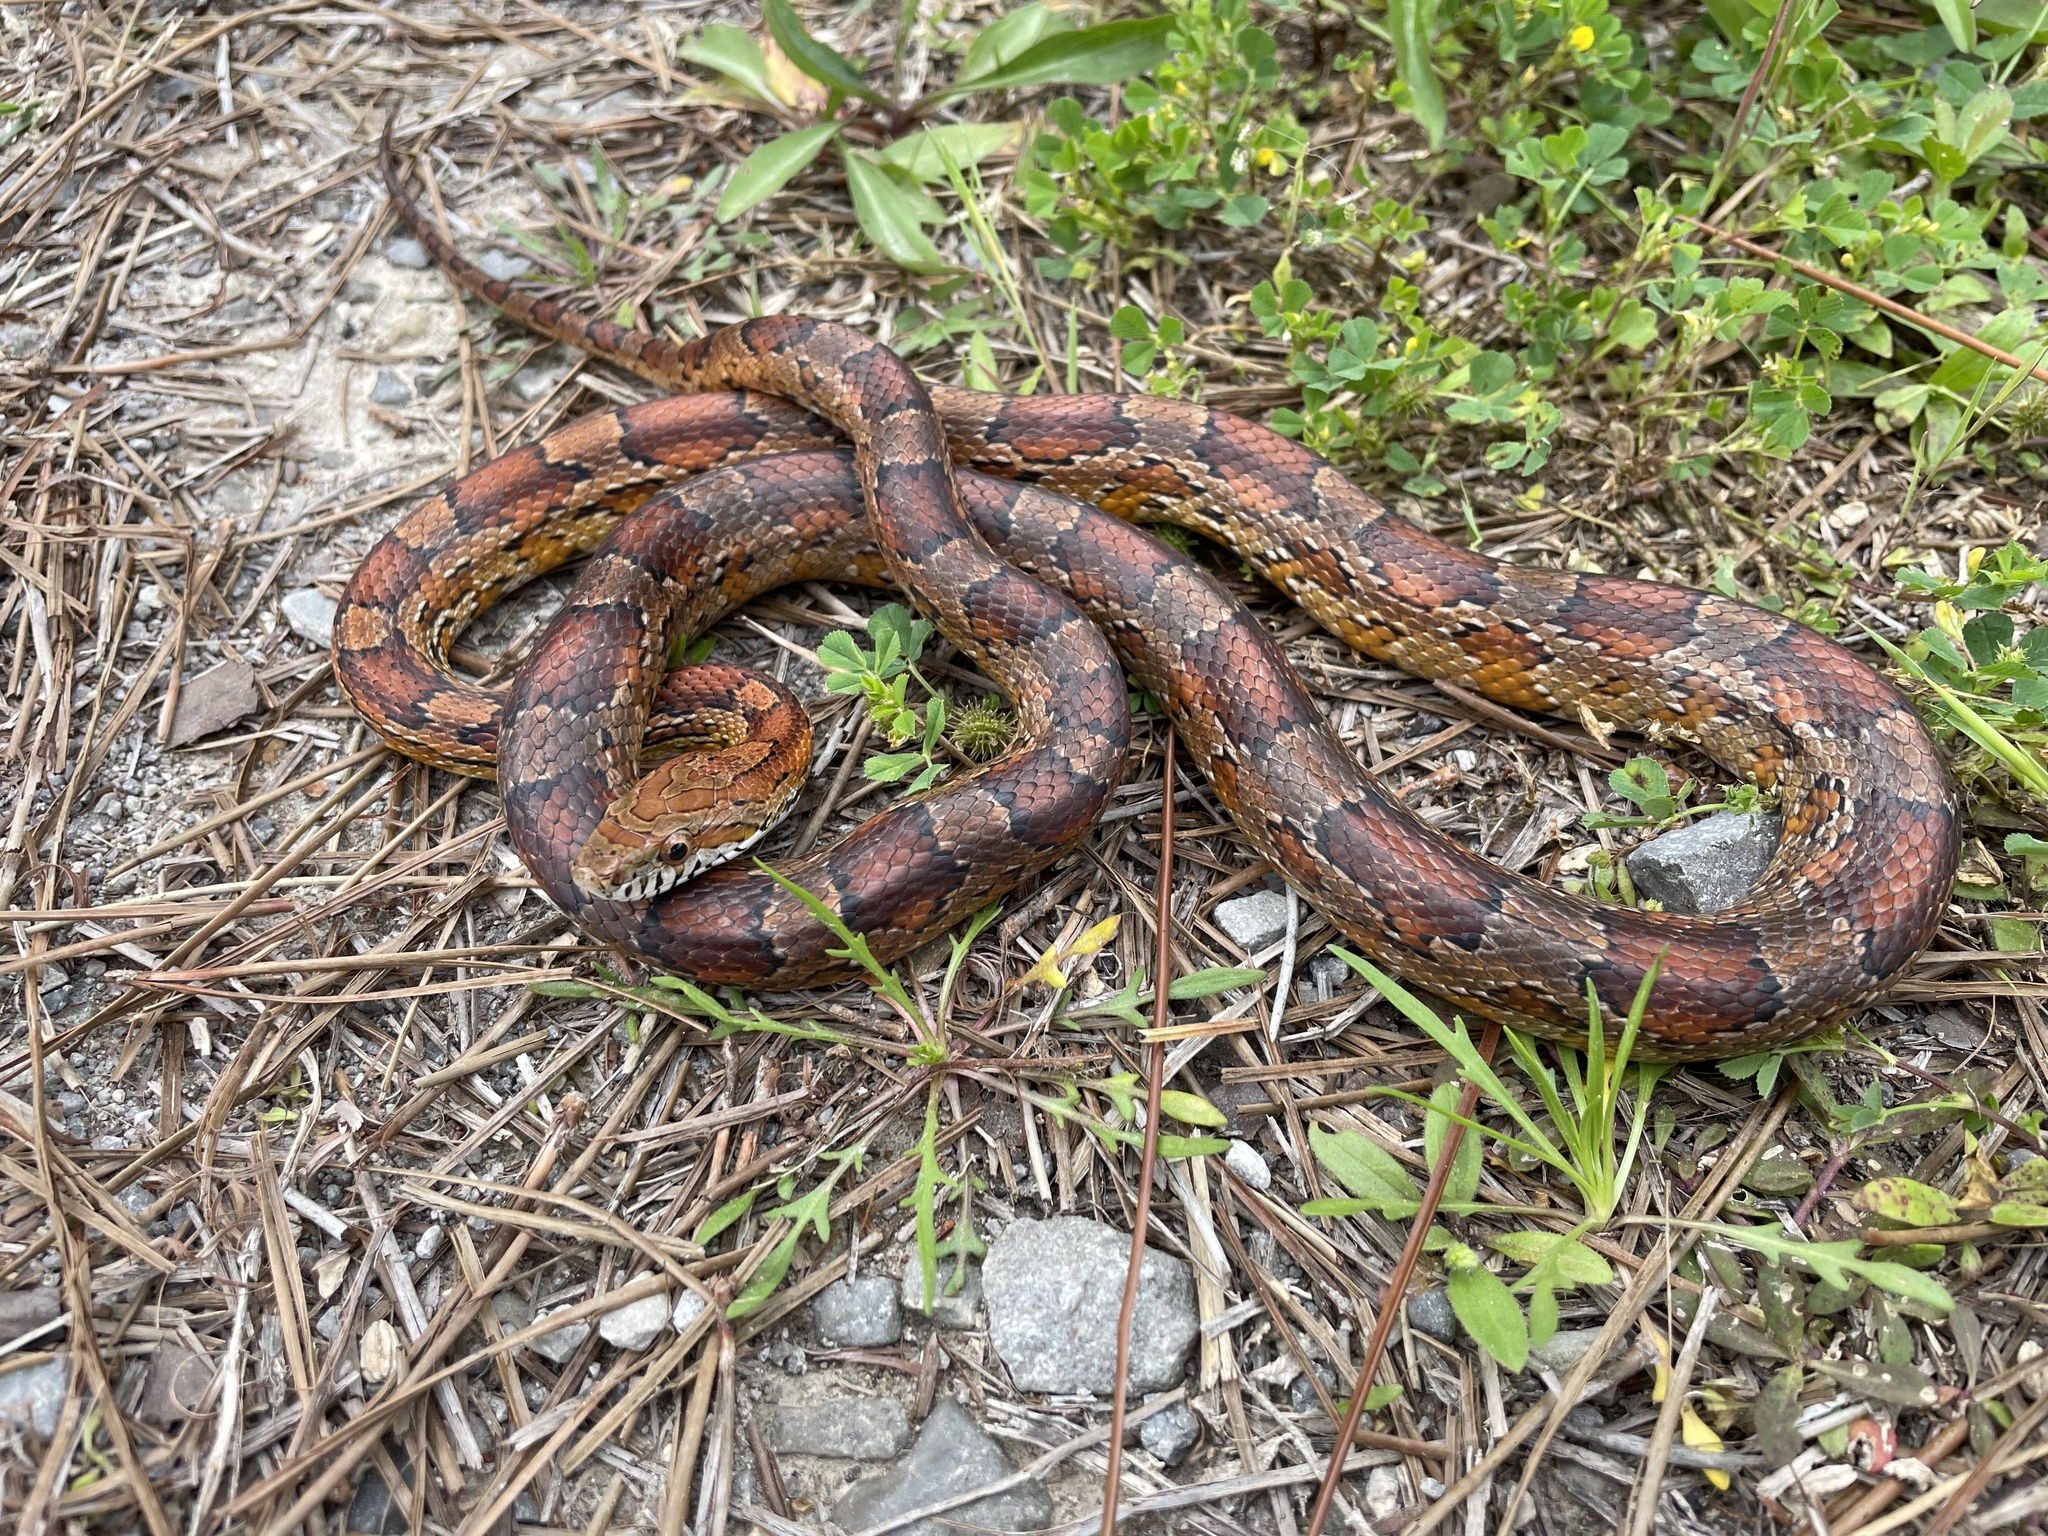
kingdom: Animalia
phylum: Chordata
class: Squamata
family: Colubridae
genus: Pantherophis
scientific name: Pantherophis guttatus
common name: Red cornsnake
